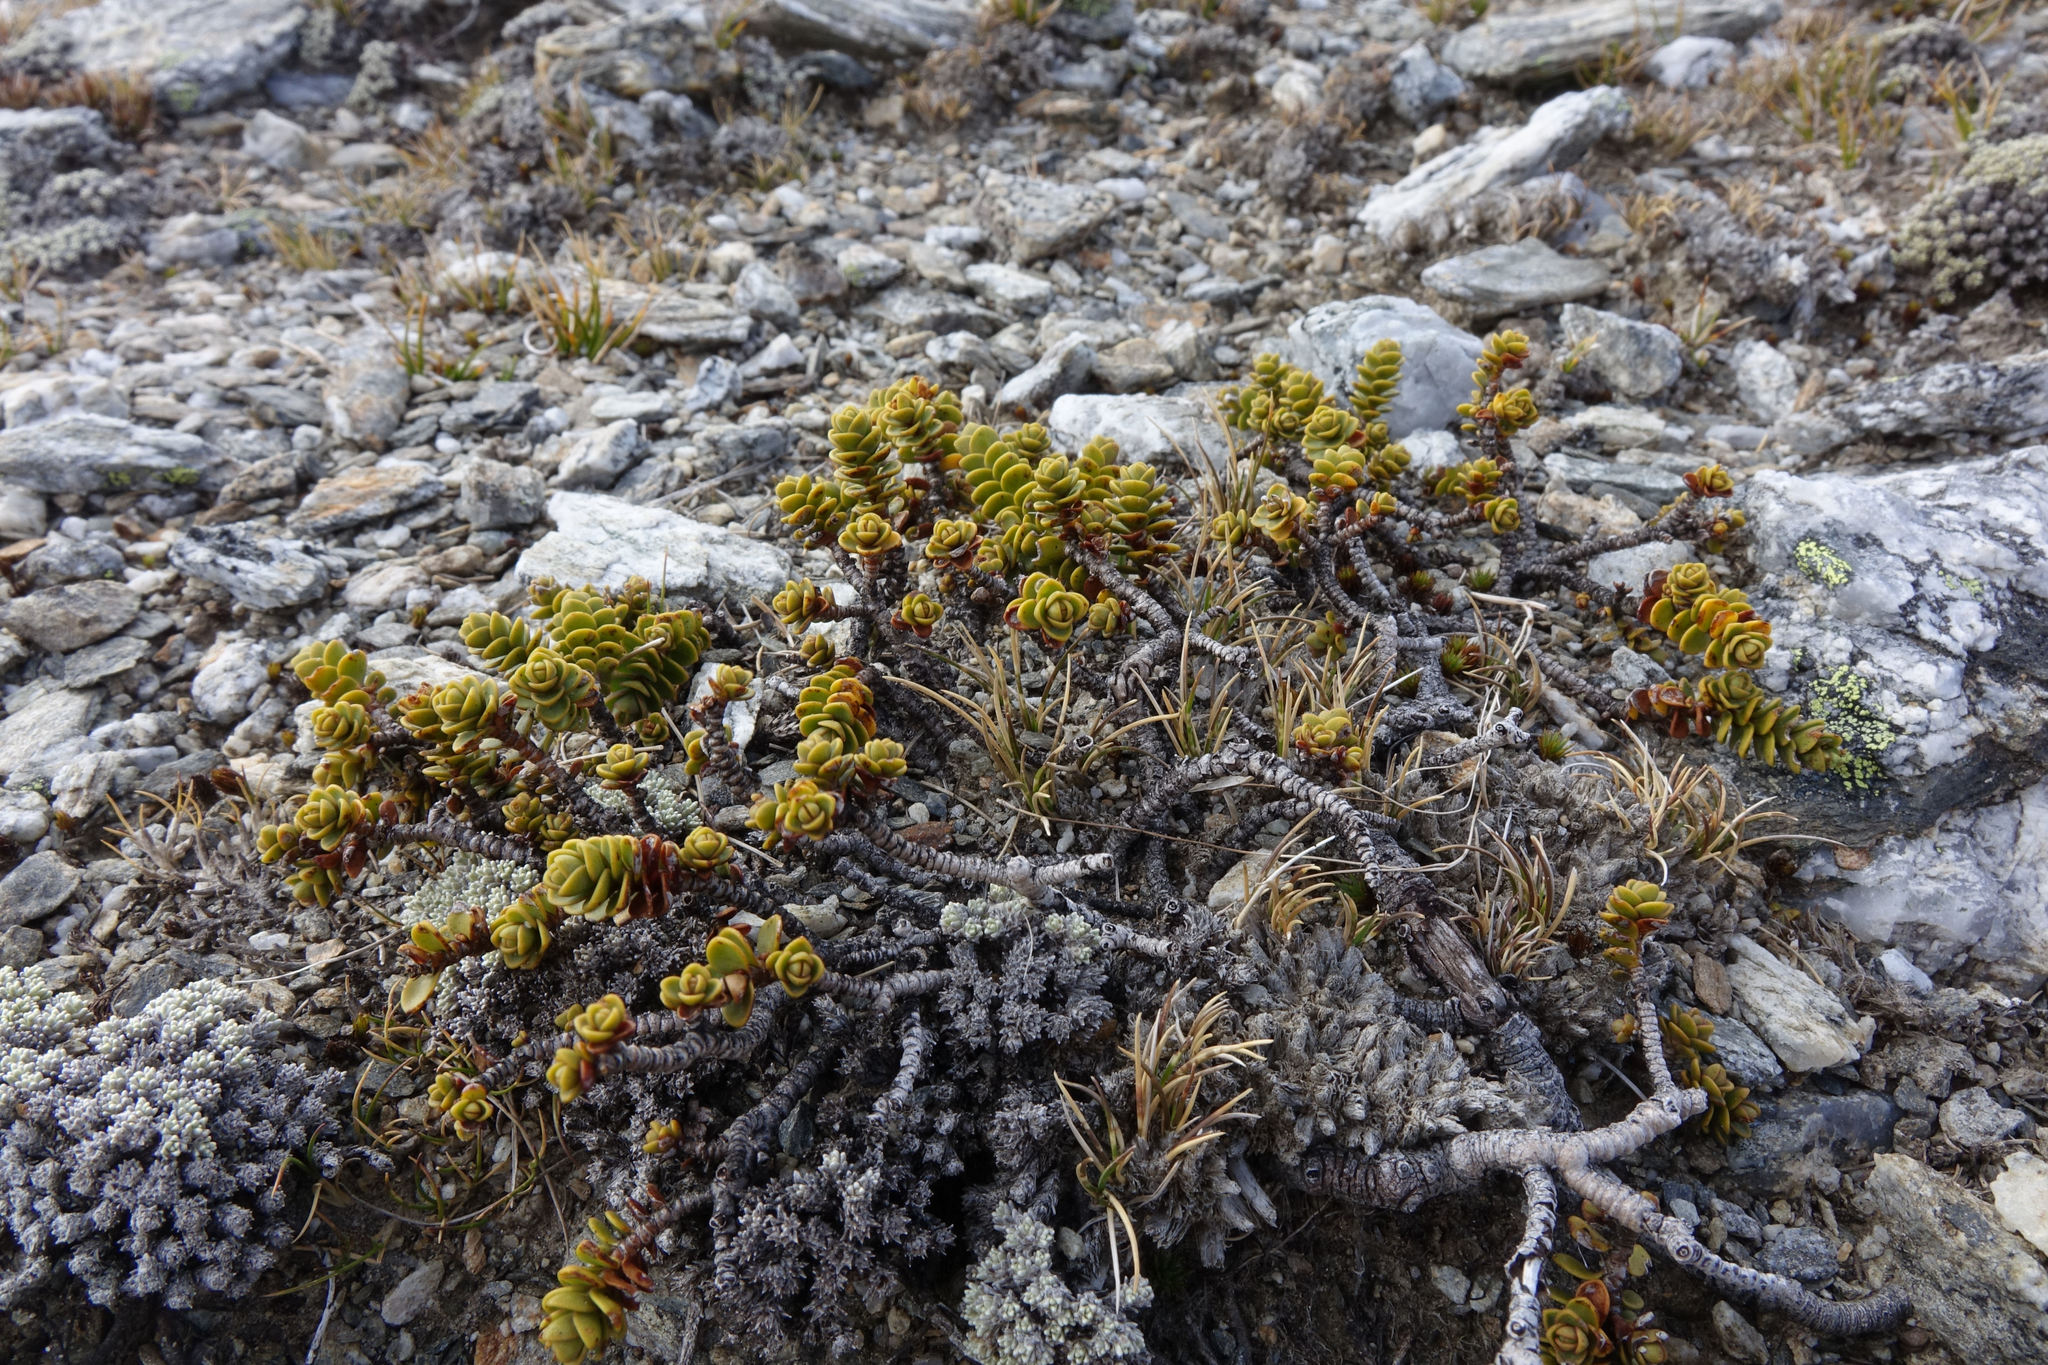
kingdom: Plantae
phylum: Tracheophyta
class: Magnoliopsida
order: Lamiales
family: Plantaginaceae
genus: Veronica
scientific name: Veronica buchananii
